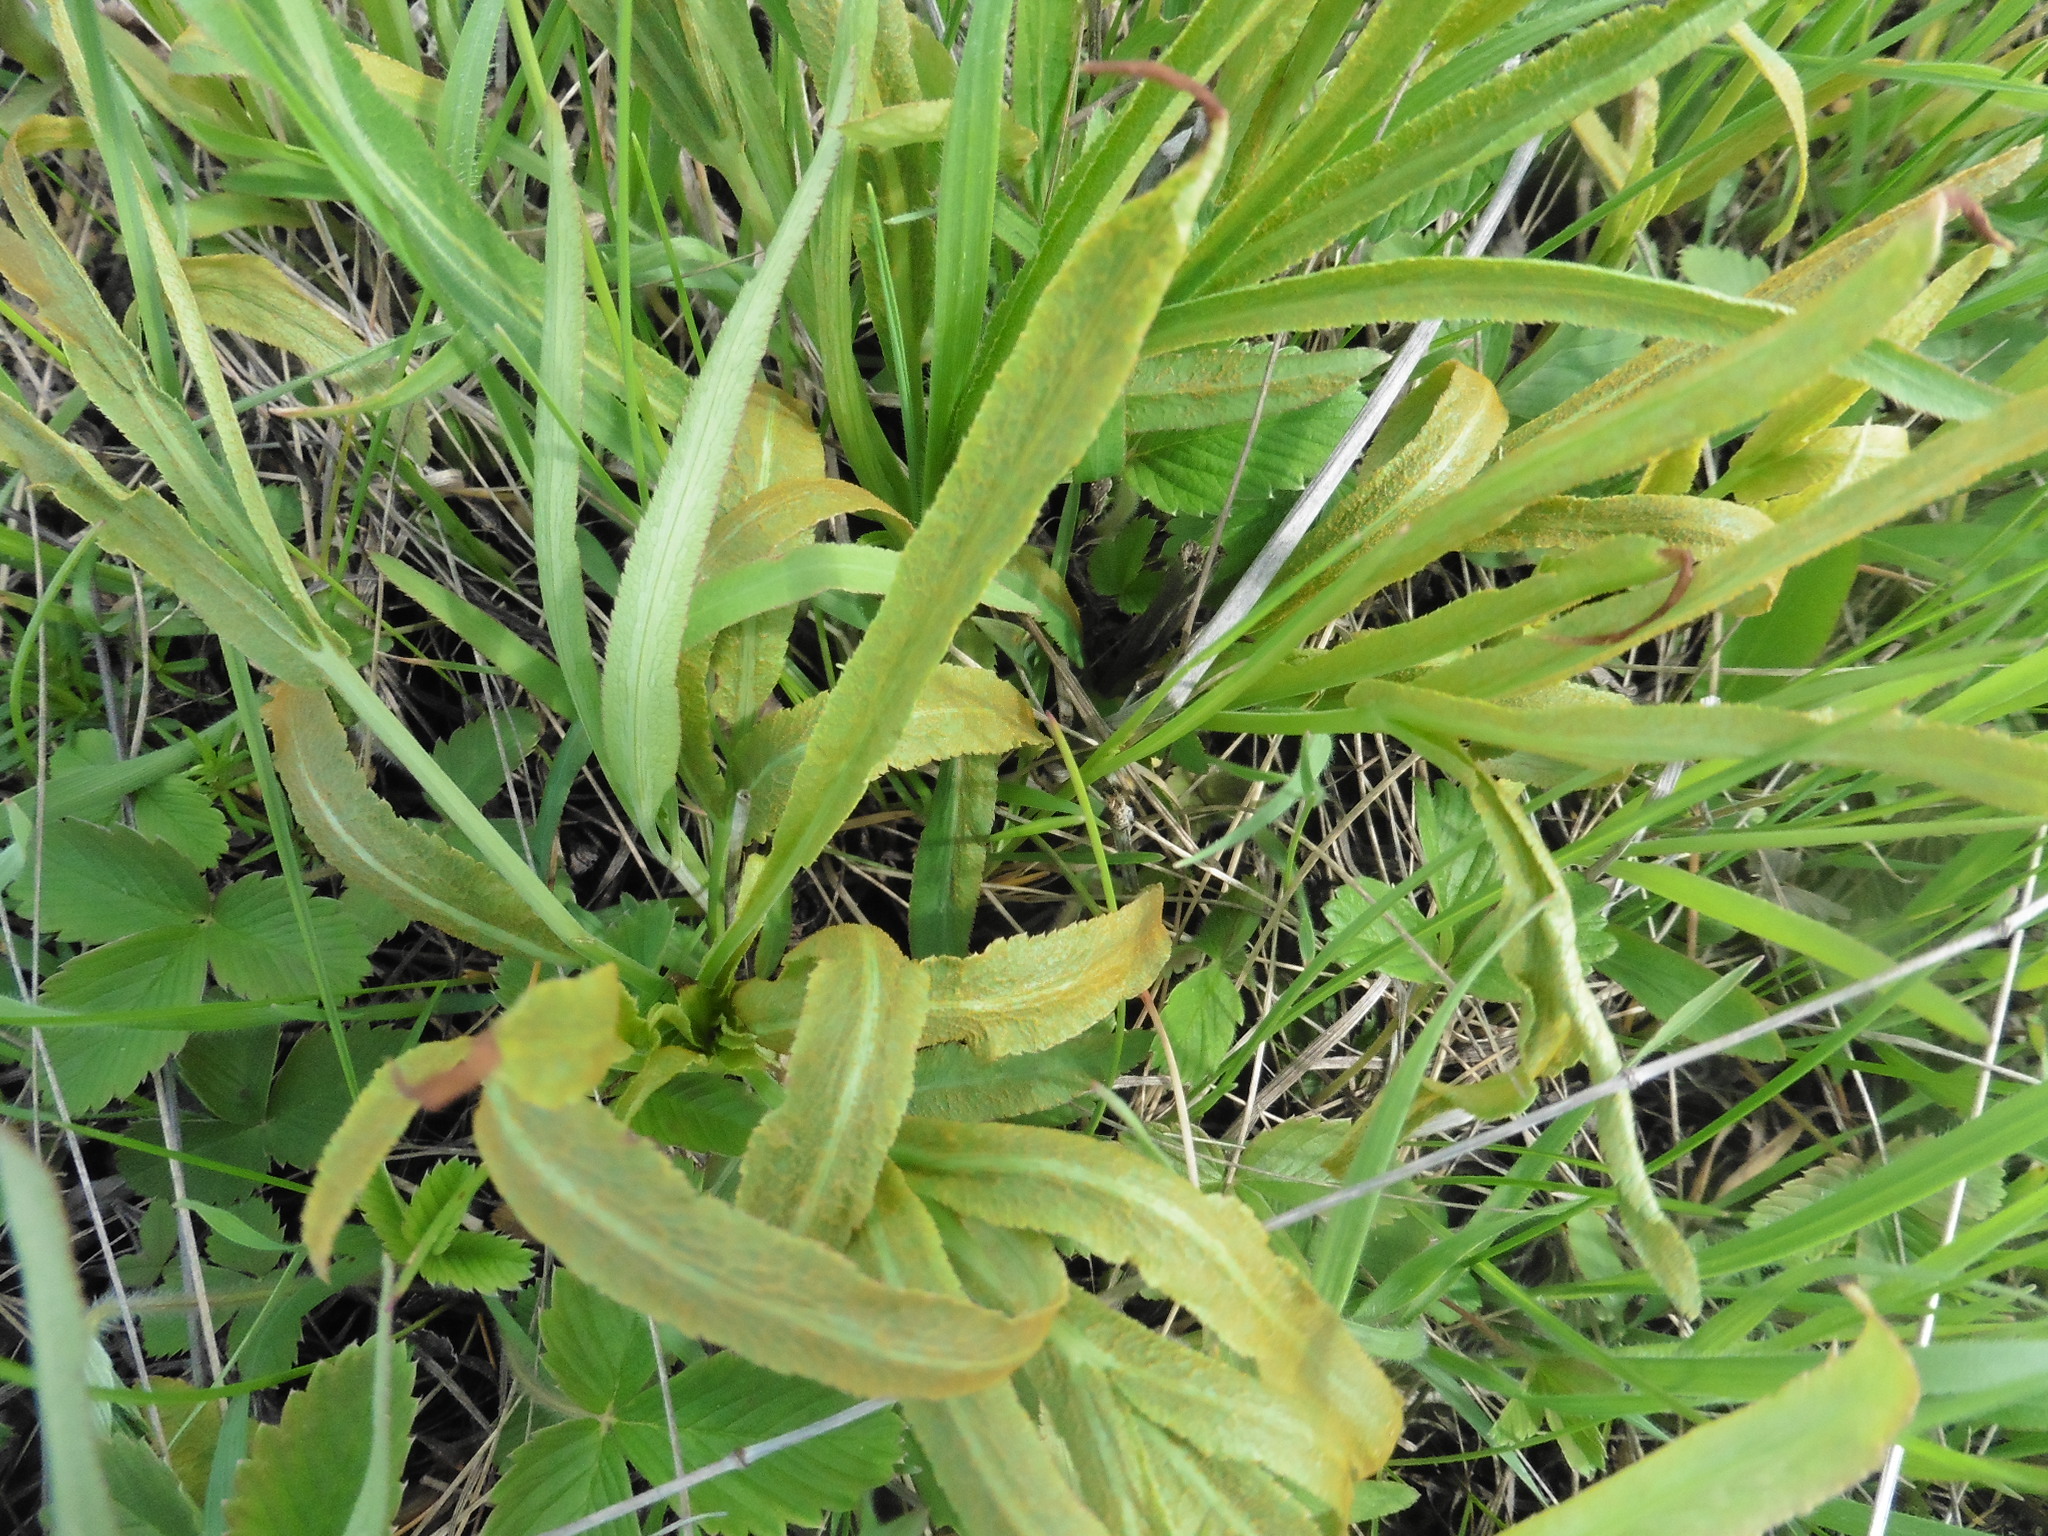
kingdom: Plantae
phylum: Tracheophyta
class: Magnoliopsida
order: Apiales
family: Apiaceae
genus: Falcaria
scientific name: Falcaria vulgaris
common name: Longleaf
